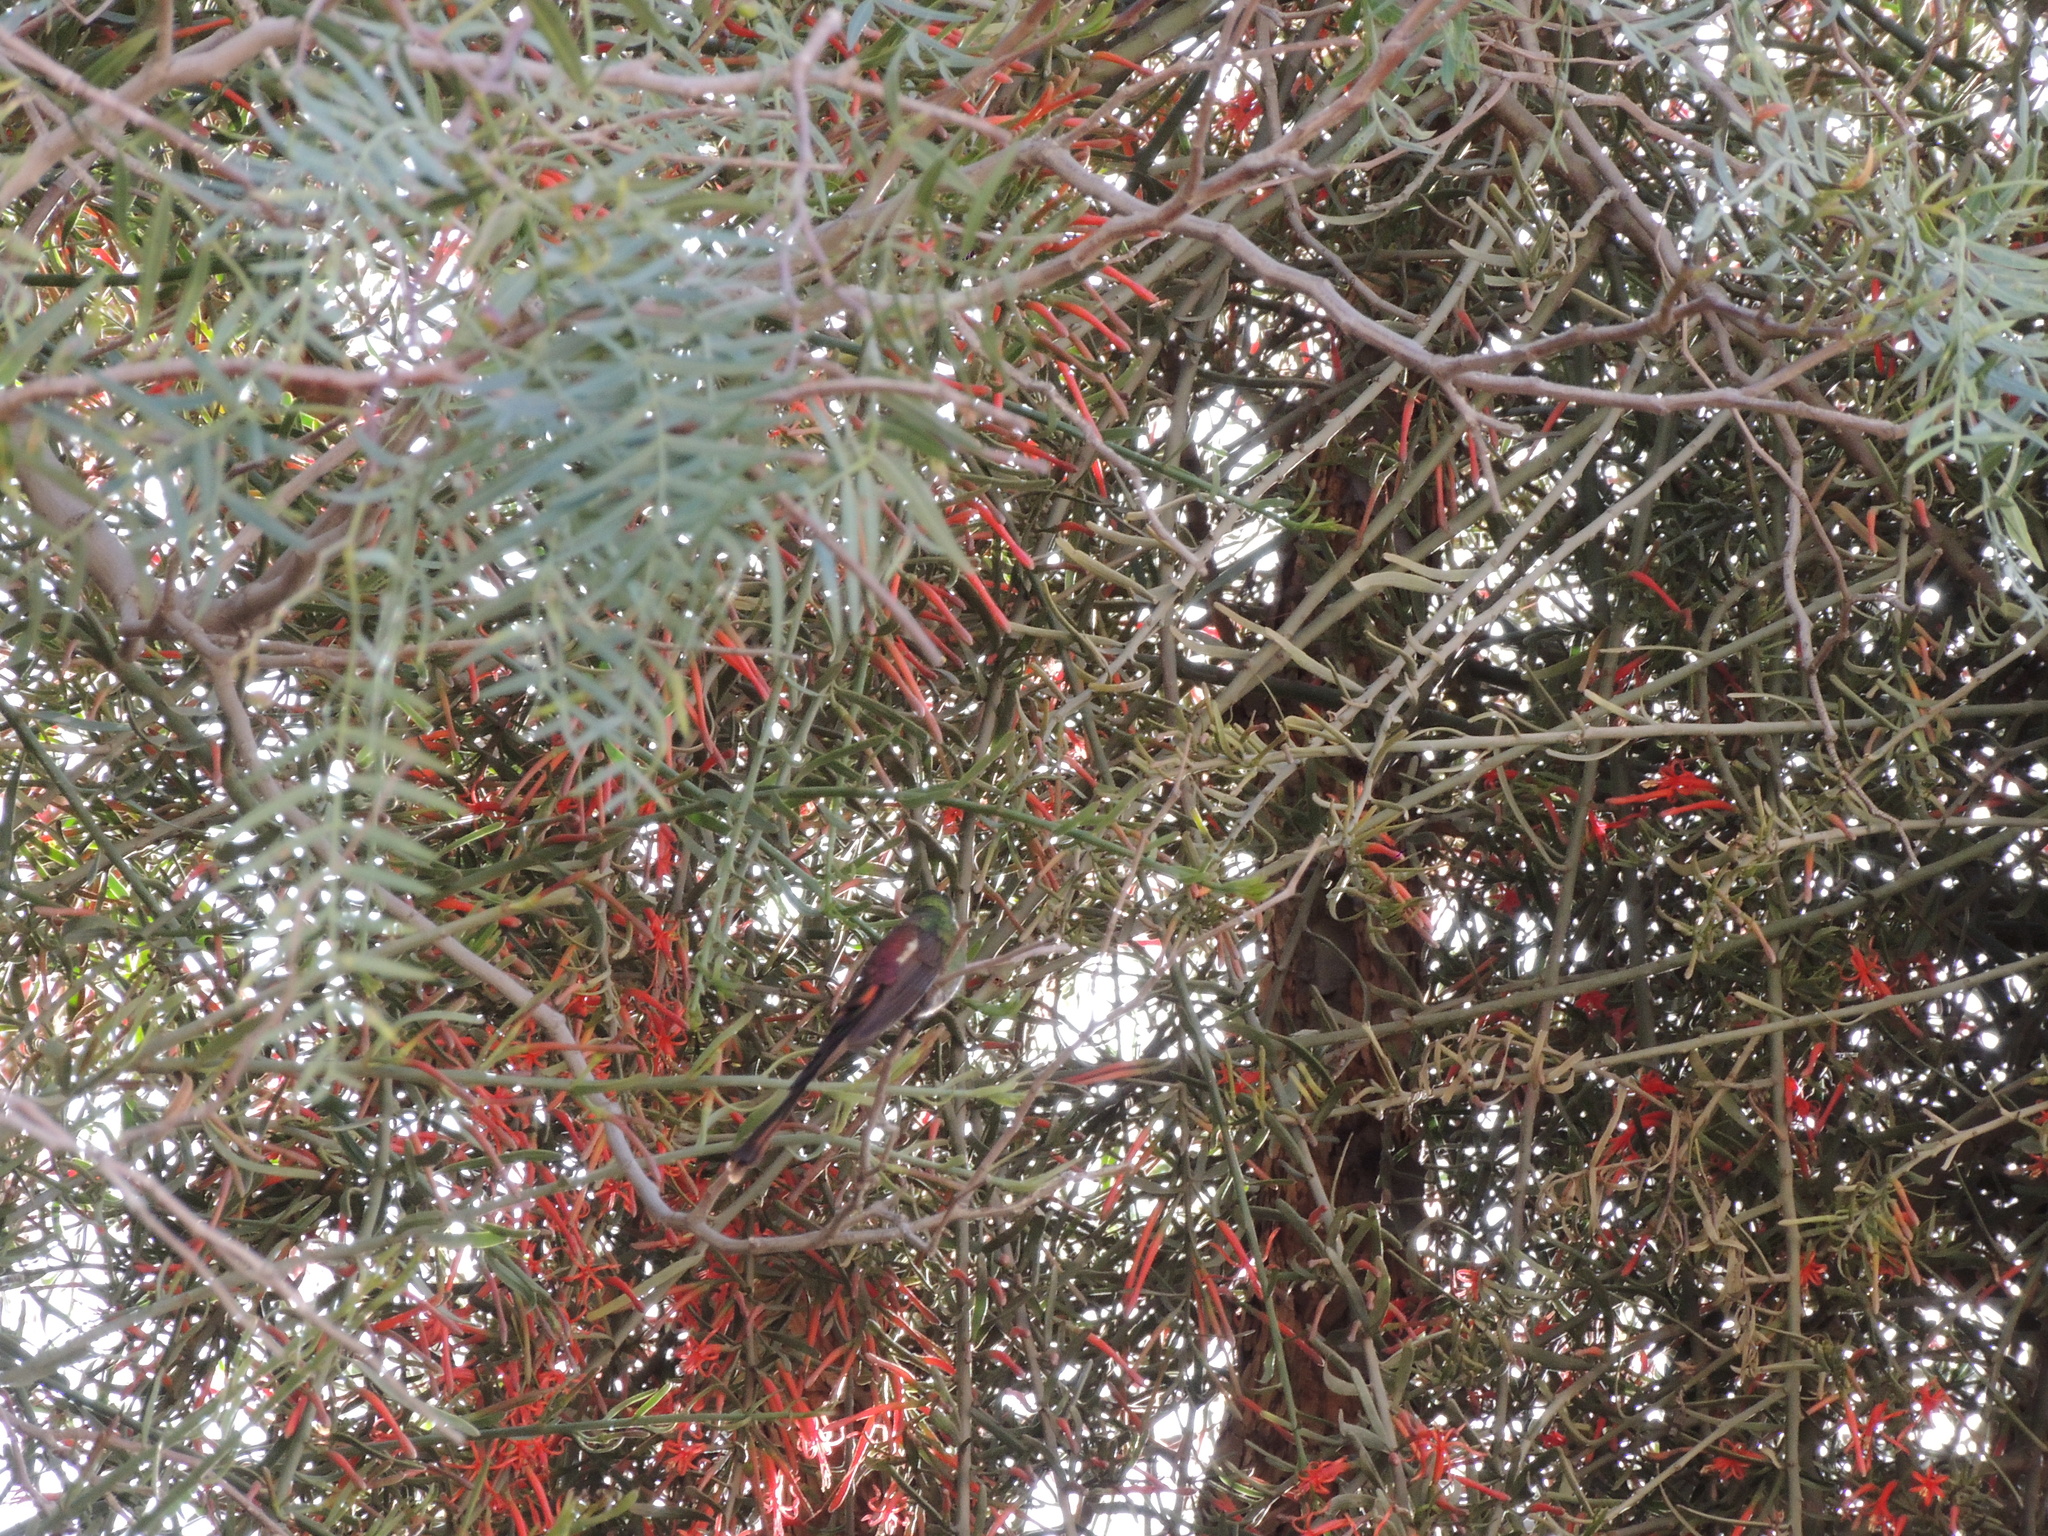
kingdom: Animalia
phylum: Chordata
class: Aves
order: Apodiformes
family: Trochilidae
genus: Sappho
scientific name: Sappho sparganurus
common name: Red-tailed comet
